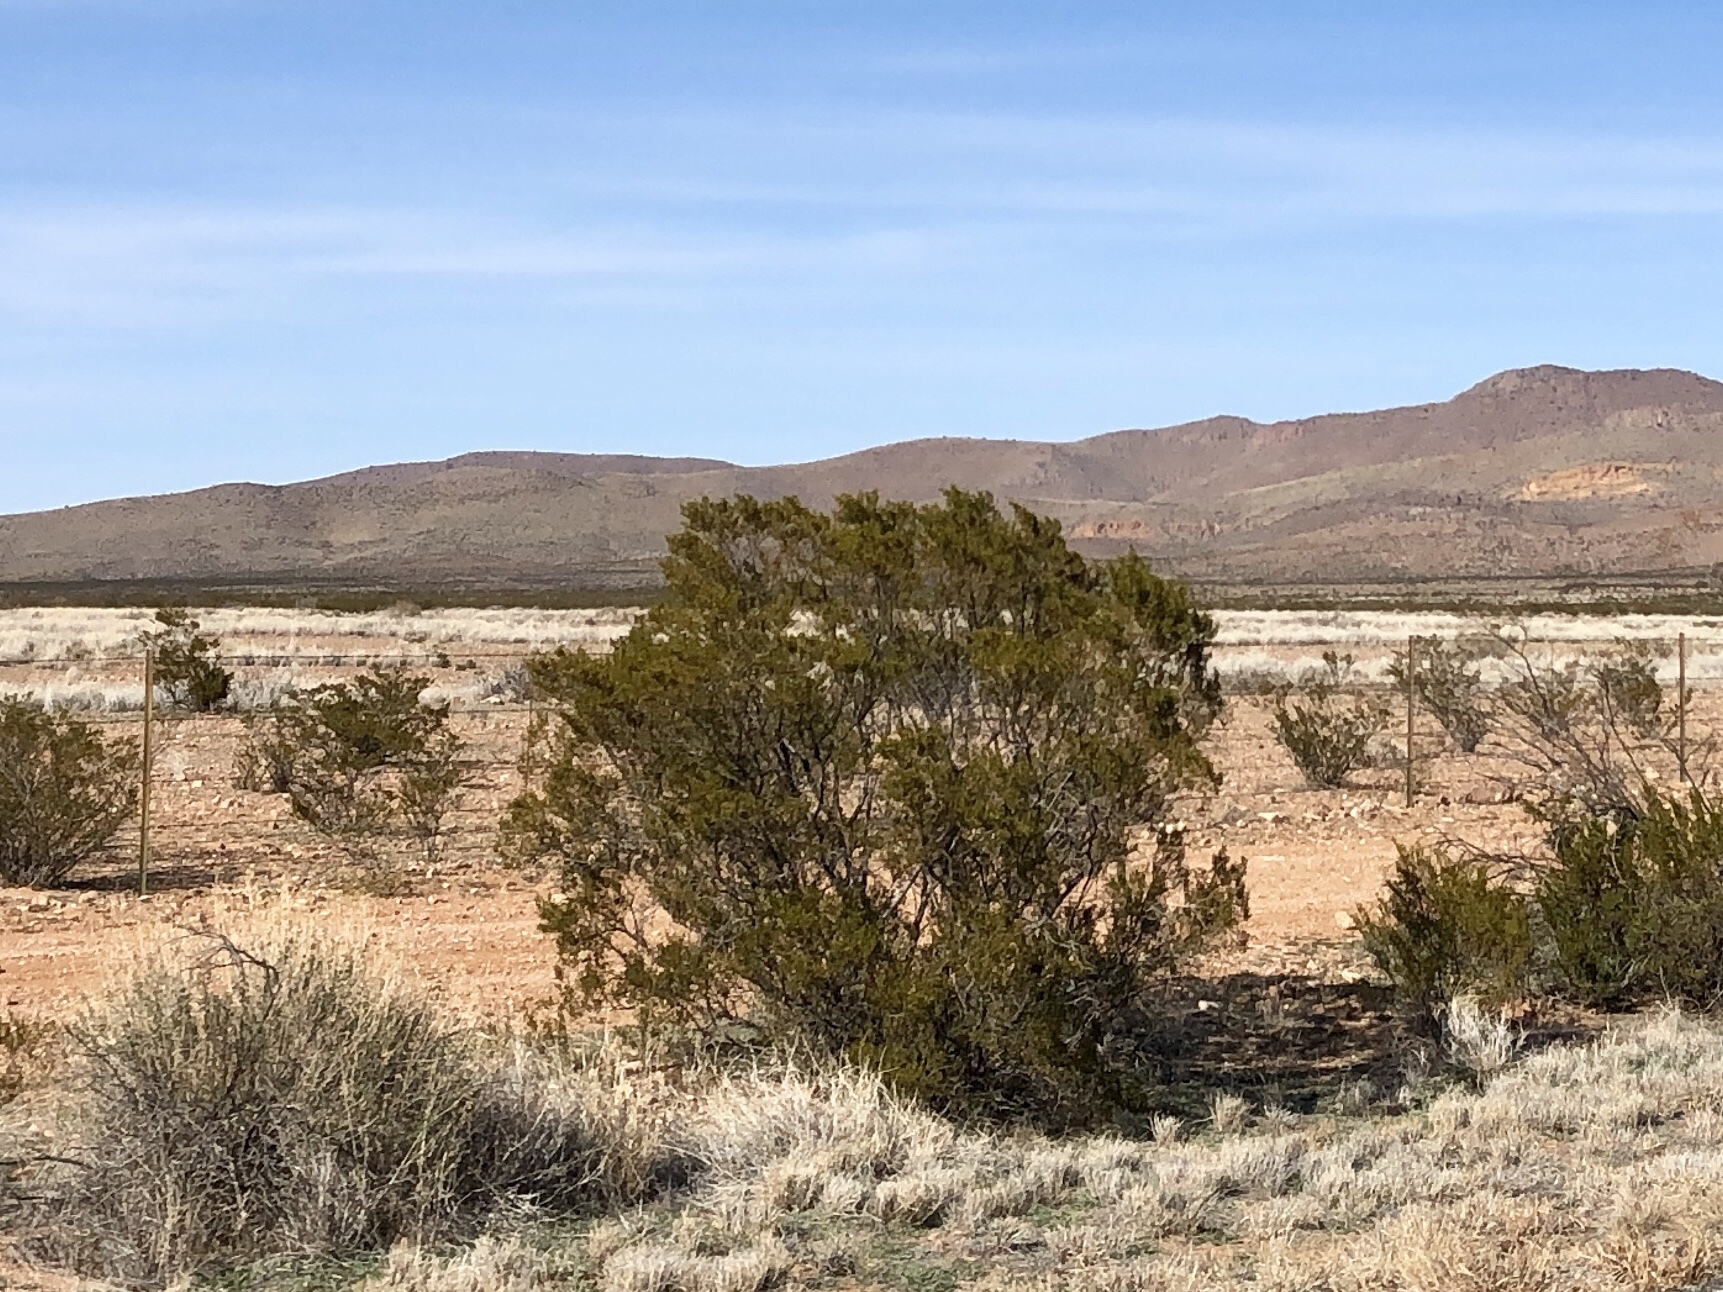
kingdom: Plantae
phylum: Tracheophyta
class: Magnoliopsida
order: Zygophyllales
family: Zygophyllaceae
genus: Larrea
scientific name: Larrea tridentata
